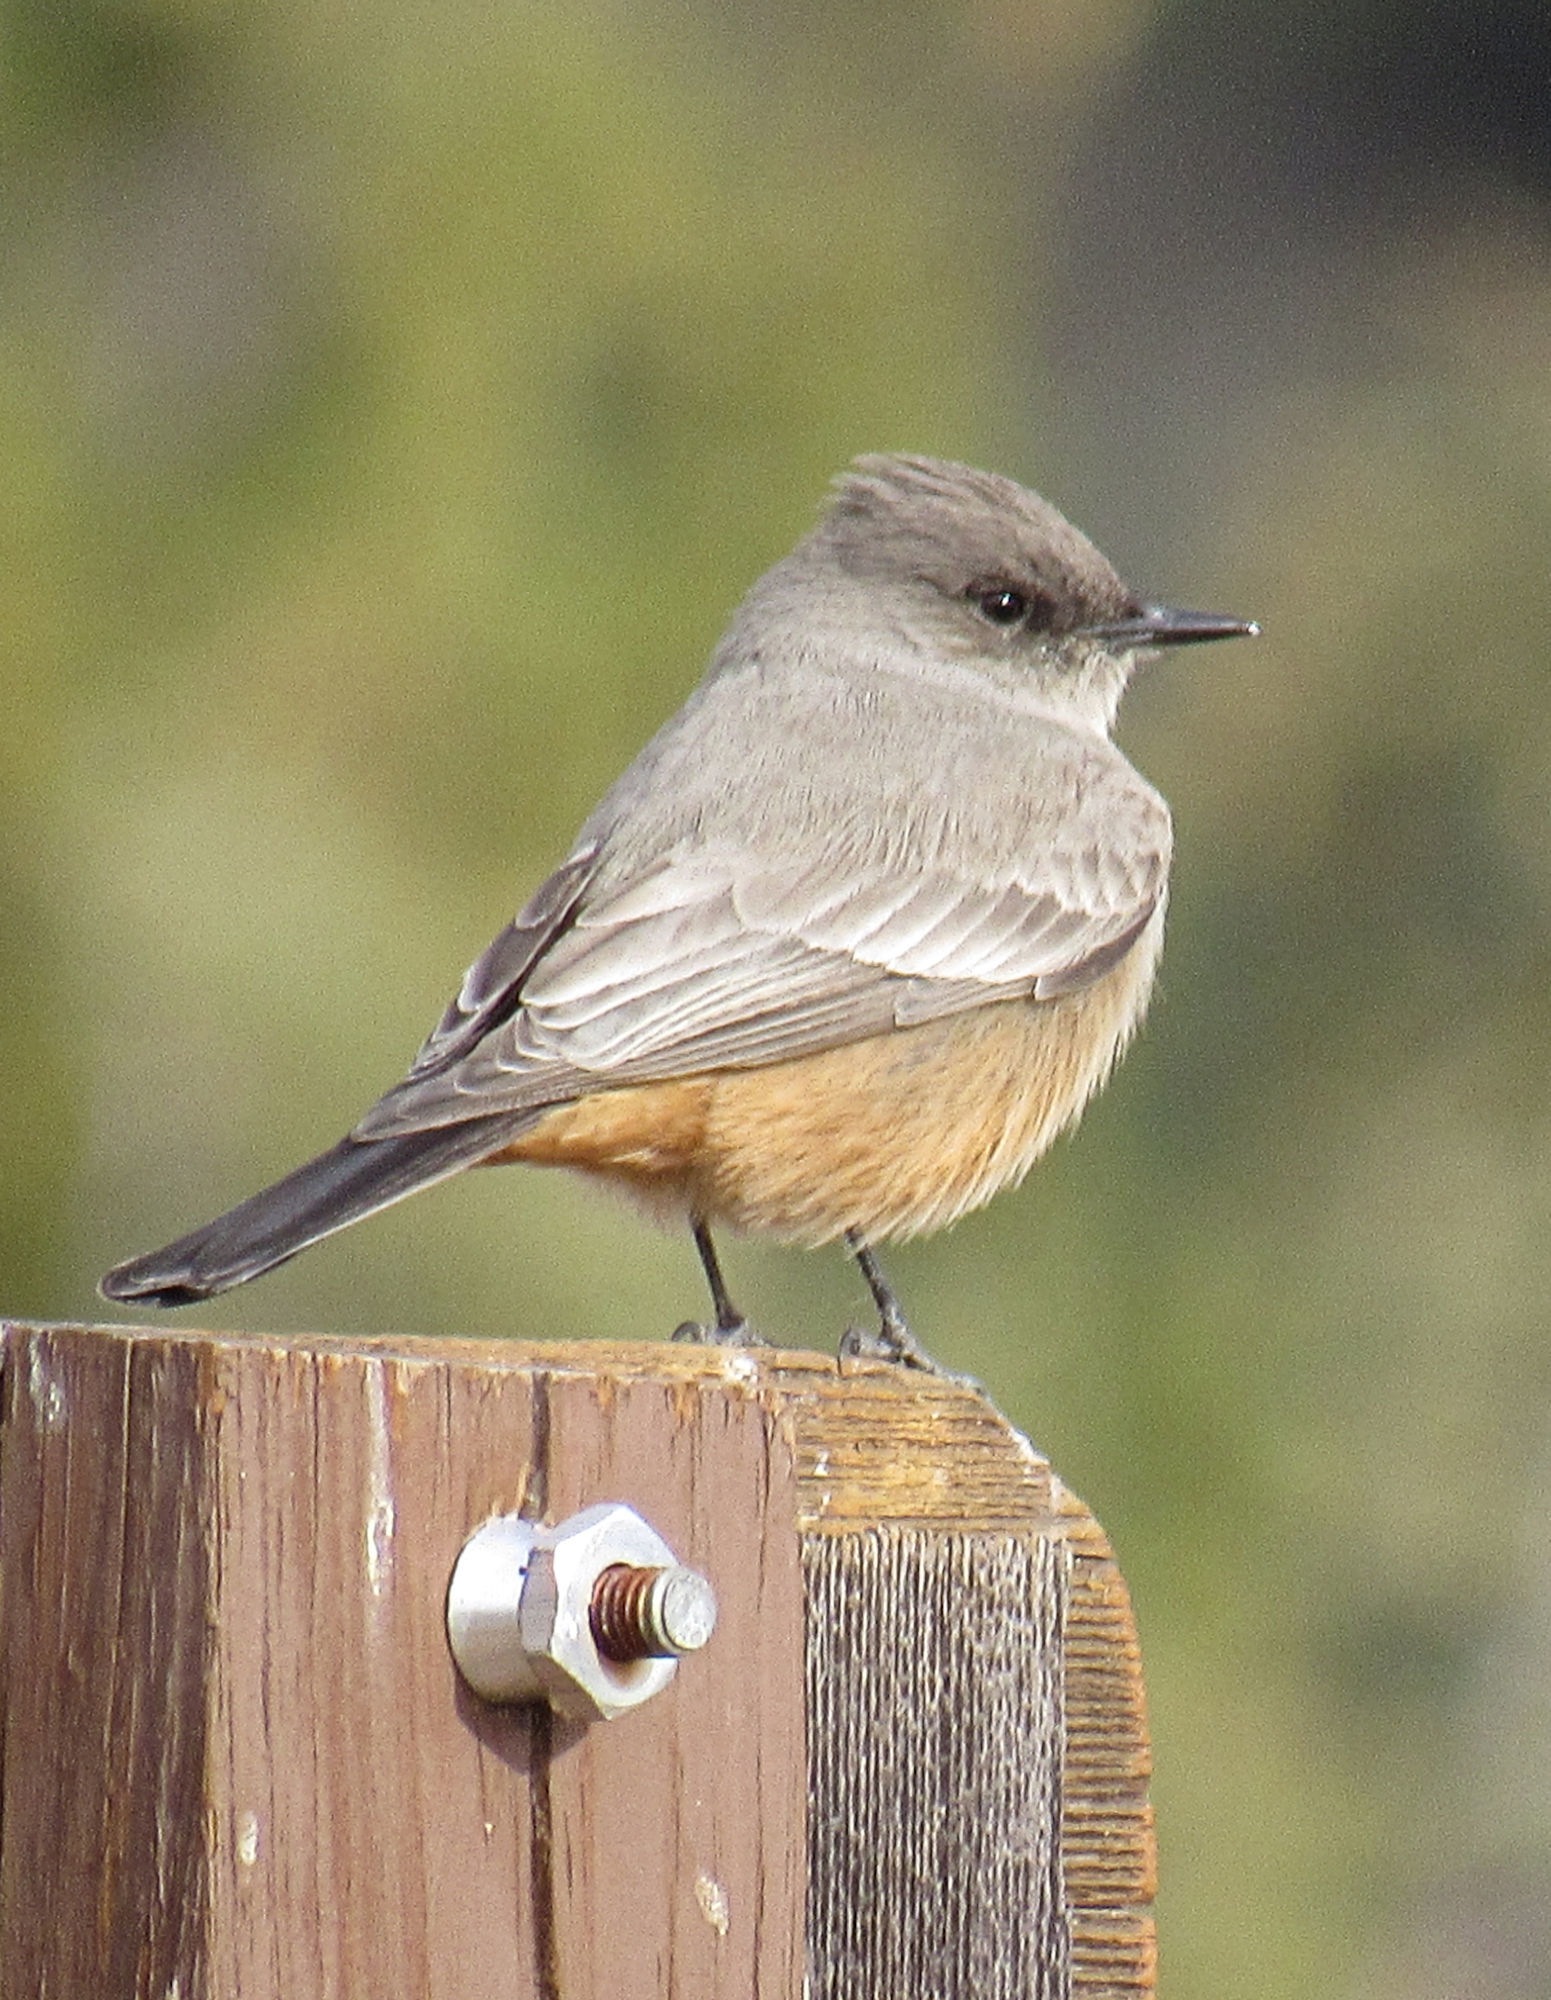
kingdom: Animalia
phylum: Chordata
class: Aves
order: Passeriformes
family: Tyrannidae
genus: Sayornis
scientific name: Sayornis saya
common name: Say's phoebe
